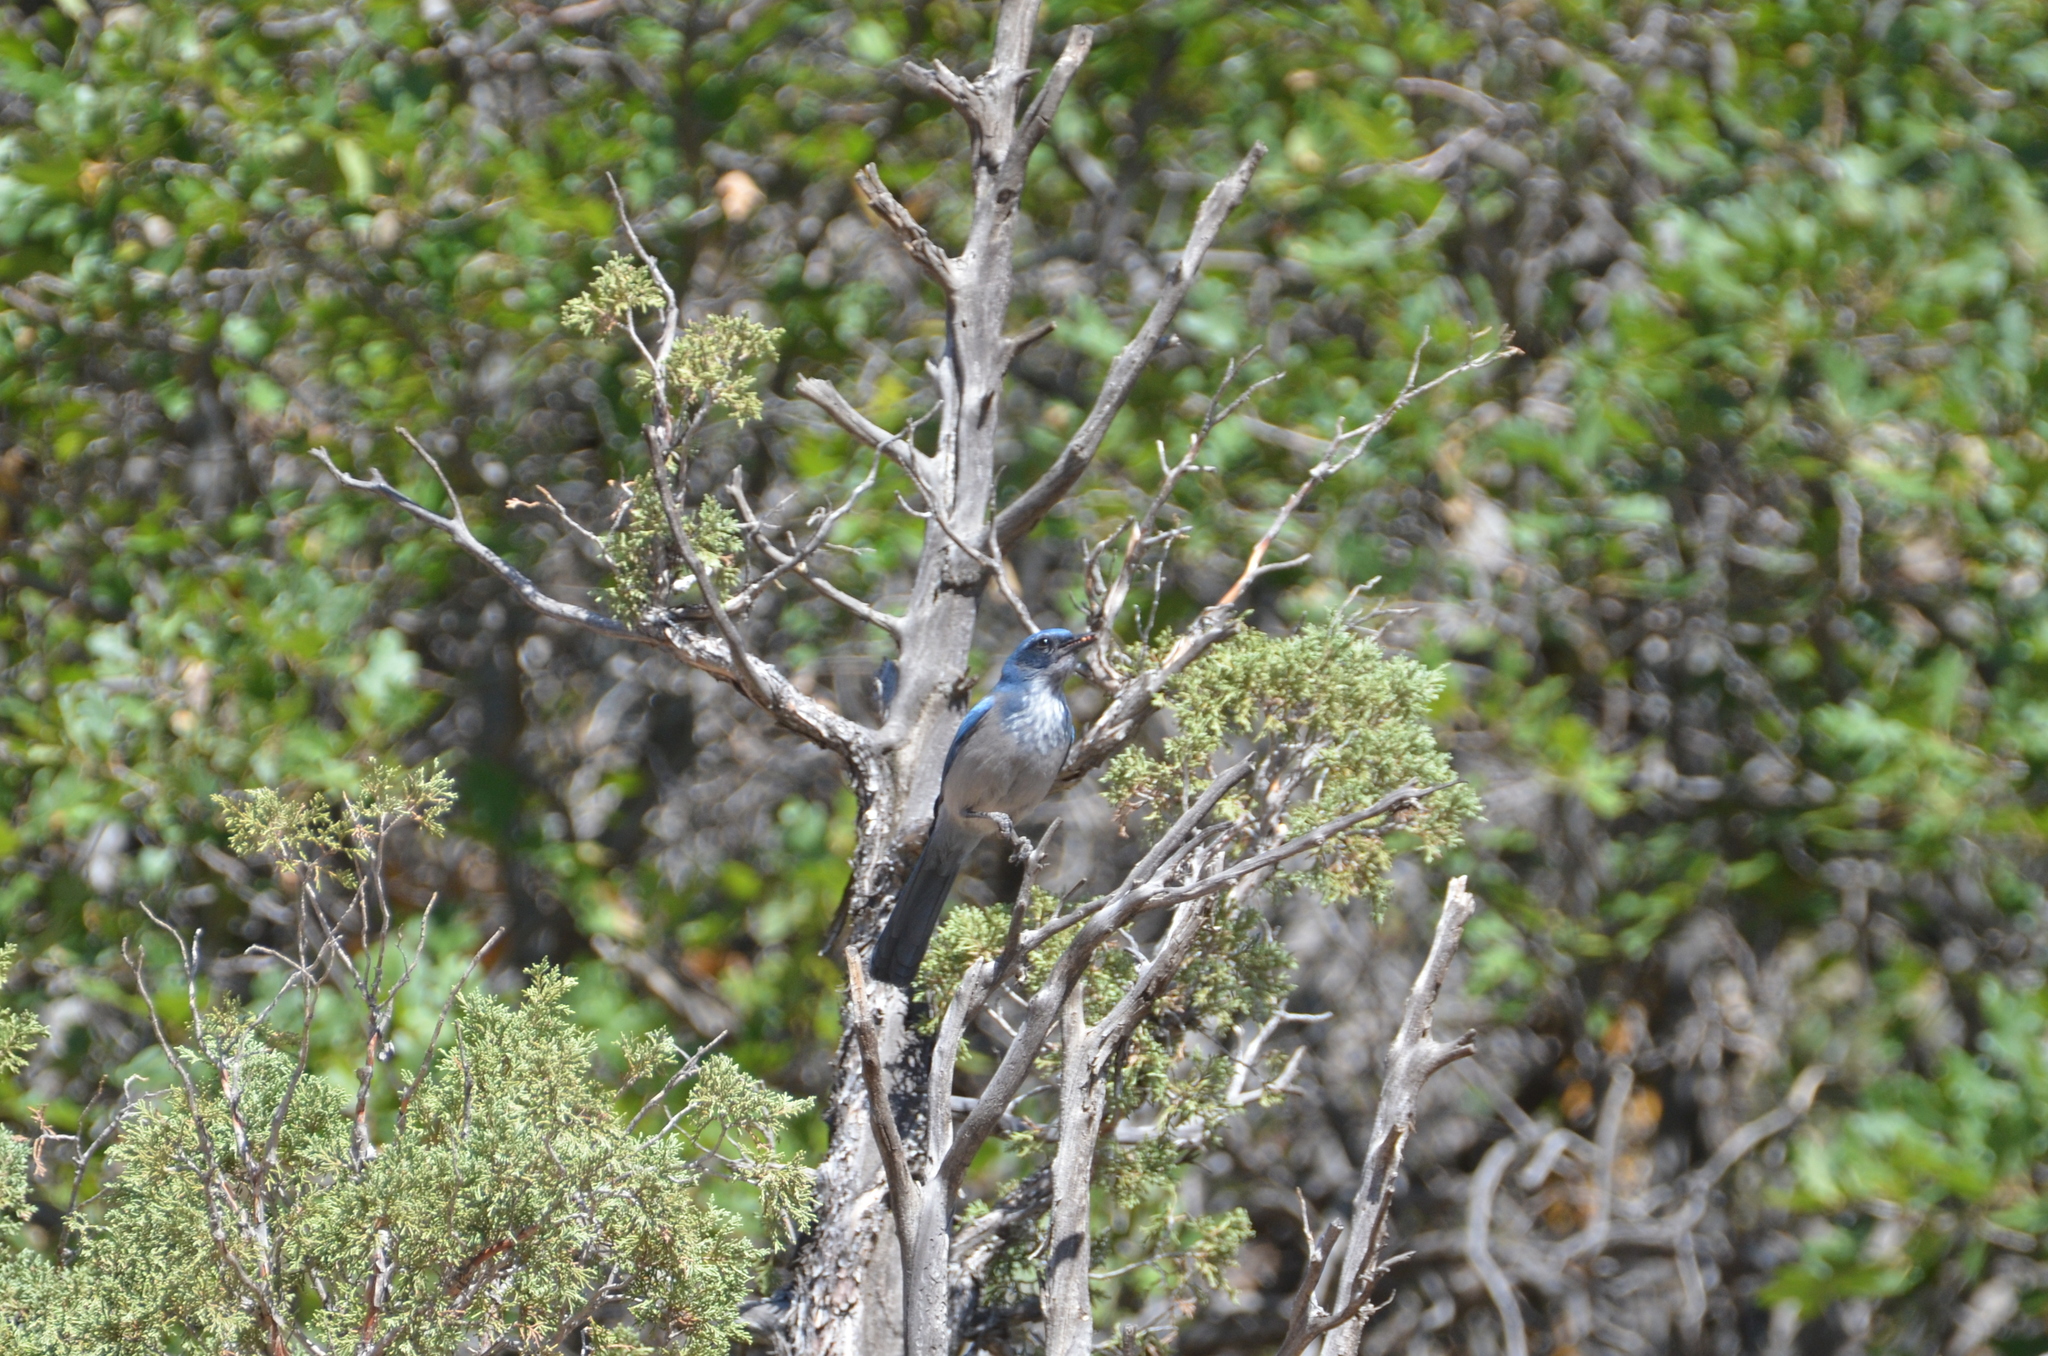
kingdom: Animalia
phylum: Chordata
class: Aves
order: Passeriformes
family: Corvidae
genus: Aphelocoma
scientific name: Aphelocoma woodhouseii
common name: Woodhouse's scrub-jay
